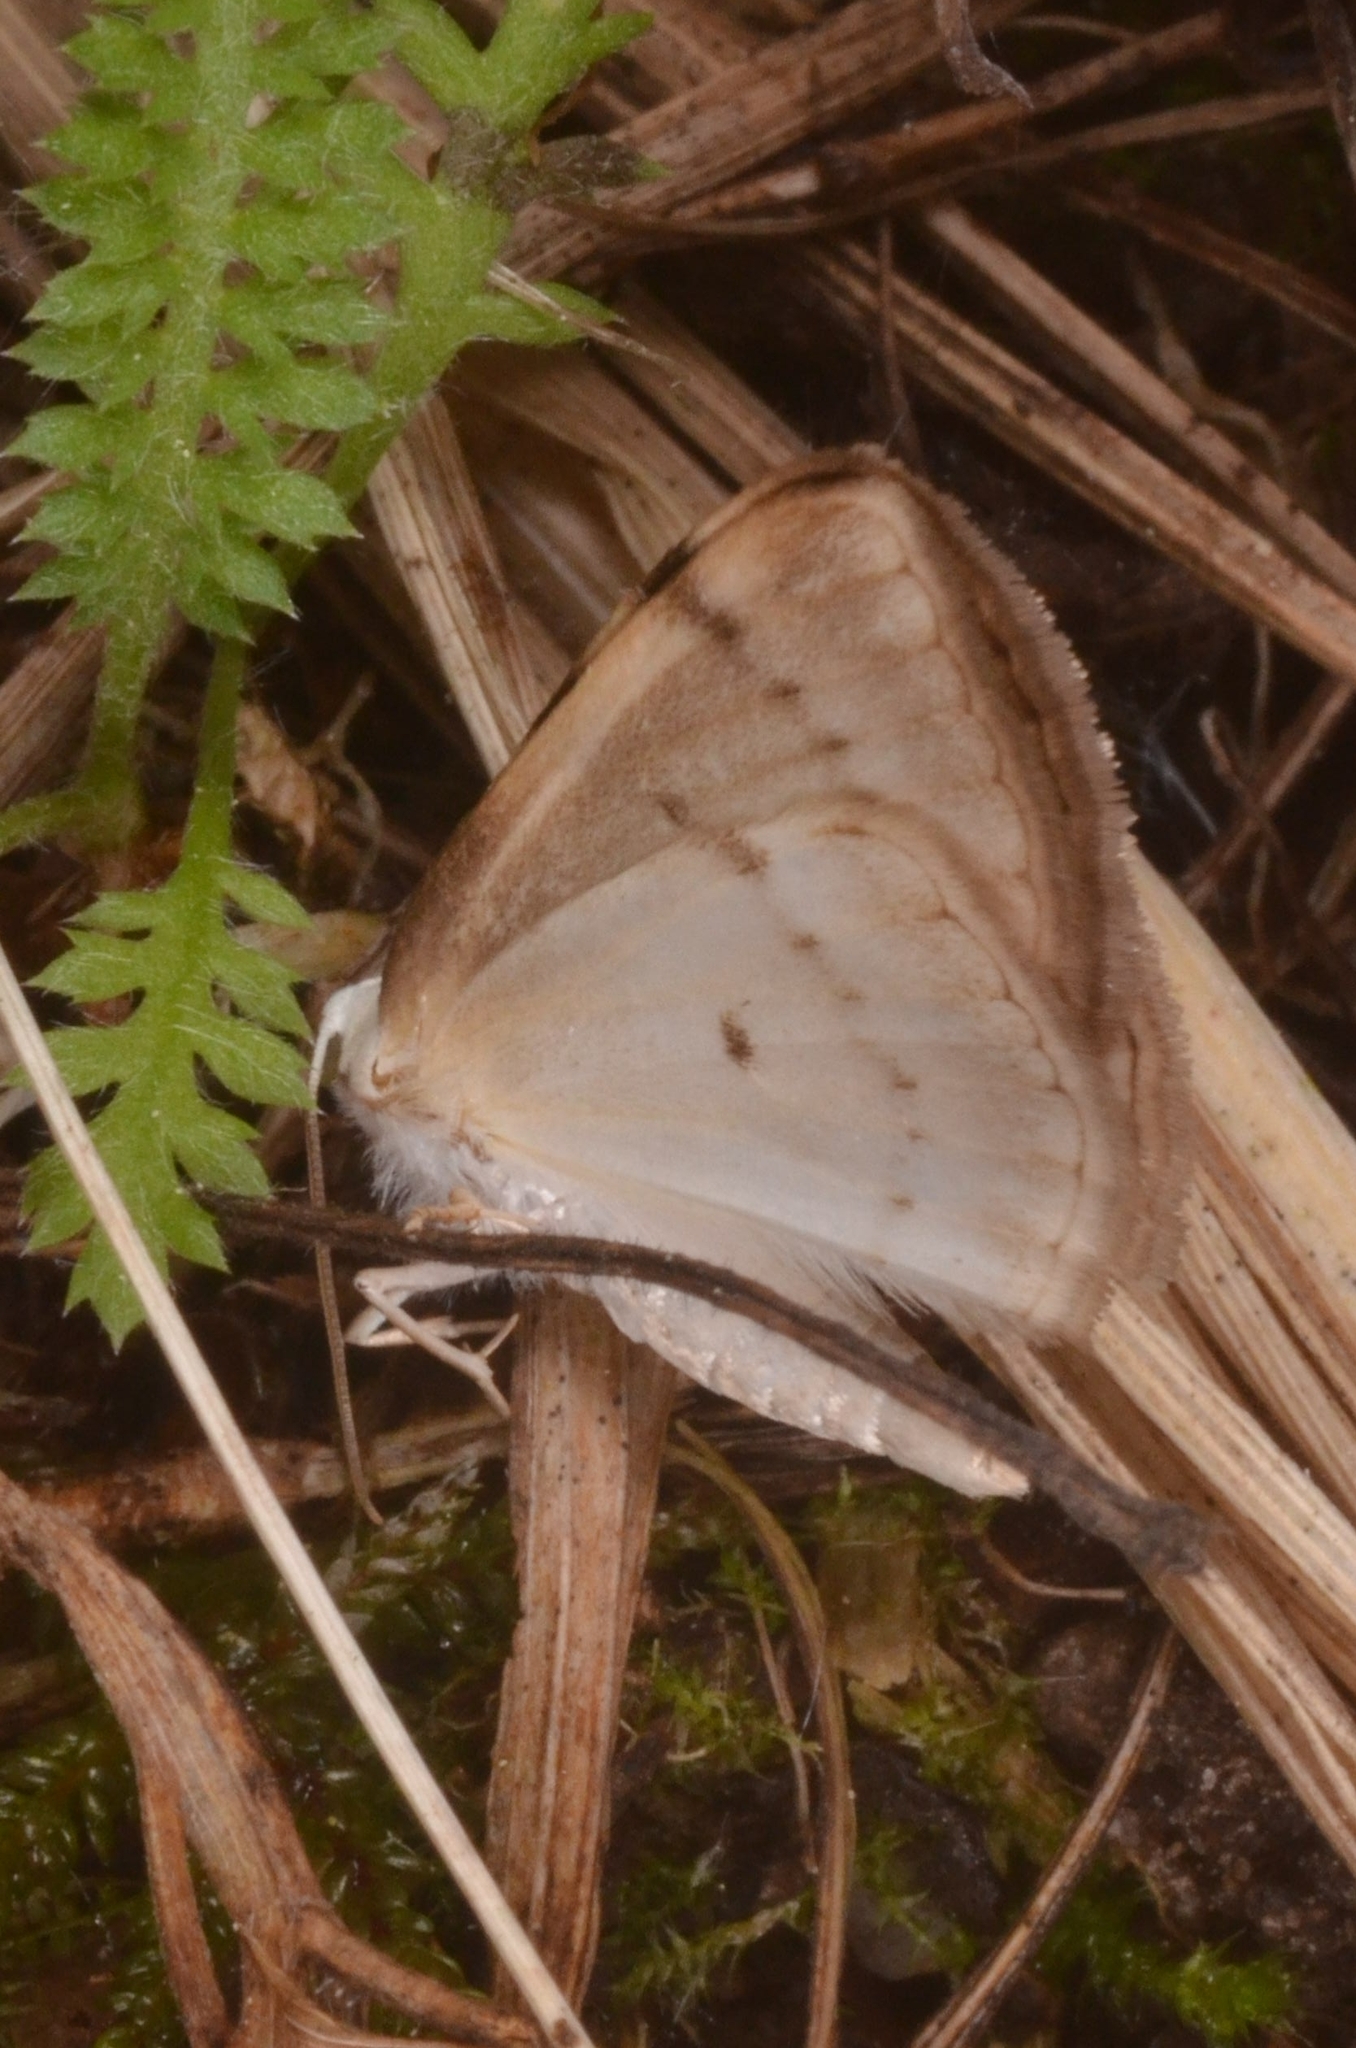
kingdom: Animalia
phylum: Arthropoda
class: Insecta
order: Lepidoptera
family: Geometridae
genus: Lomographa
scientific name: Lomographa bimaculata
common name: White-pinion spotted
